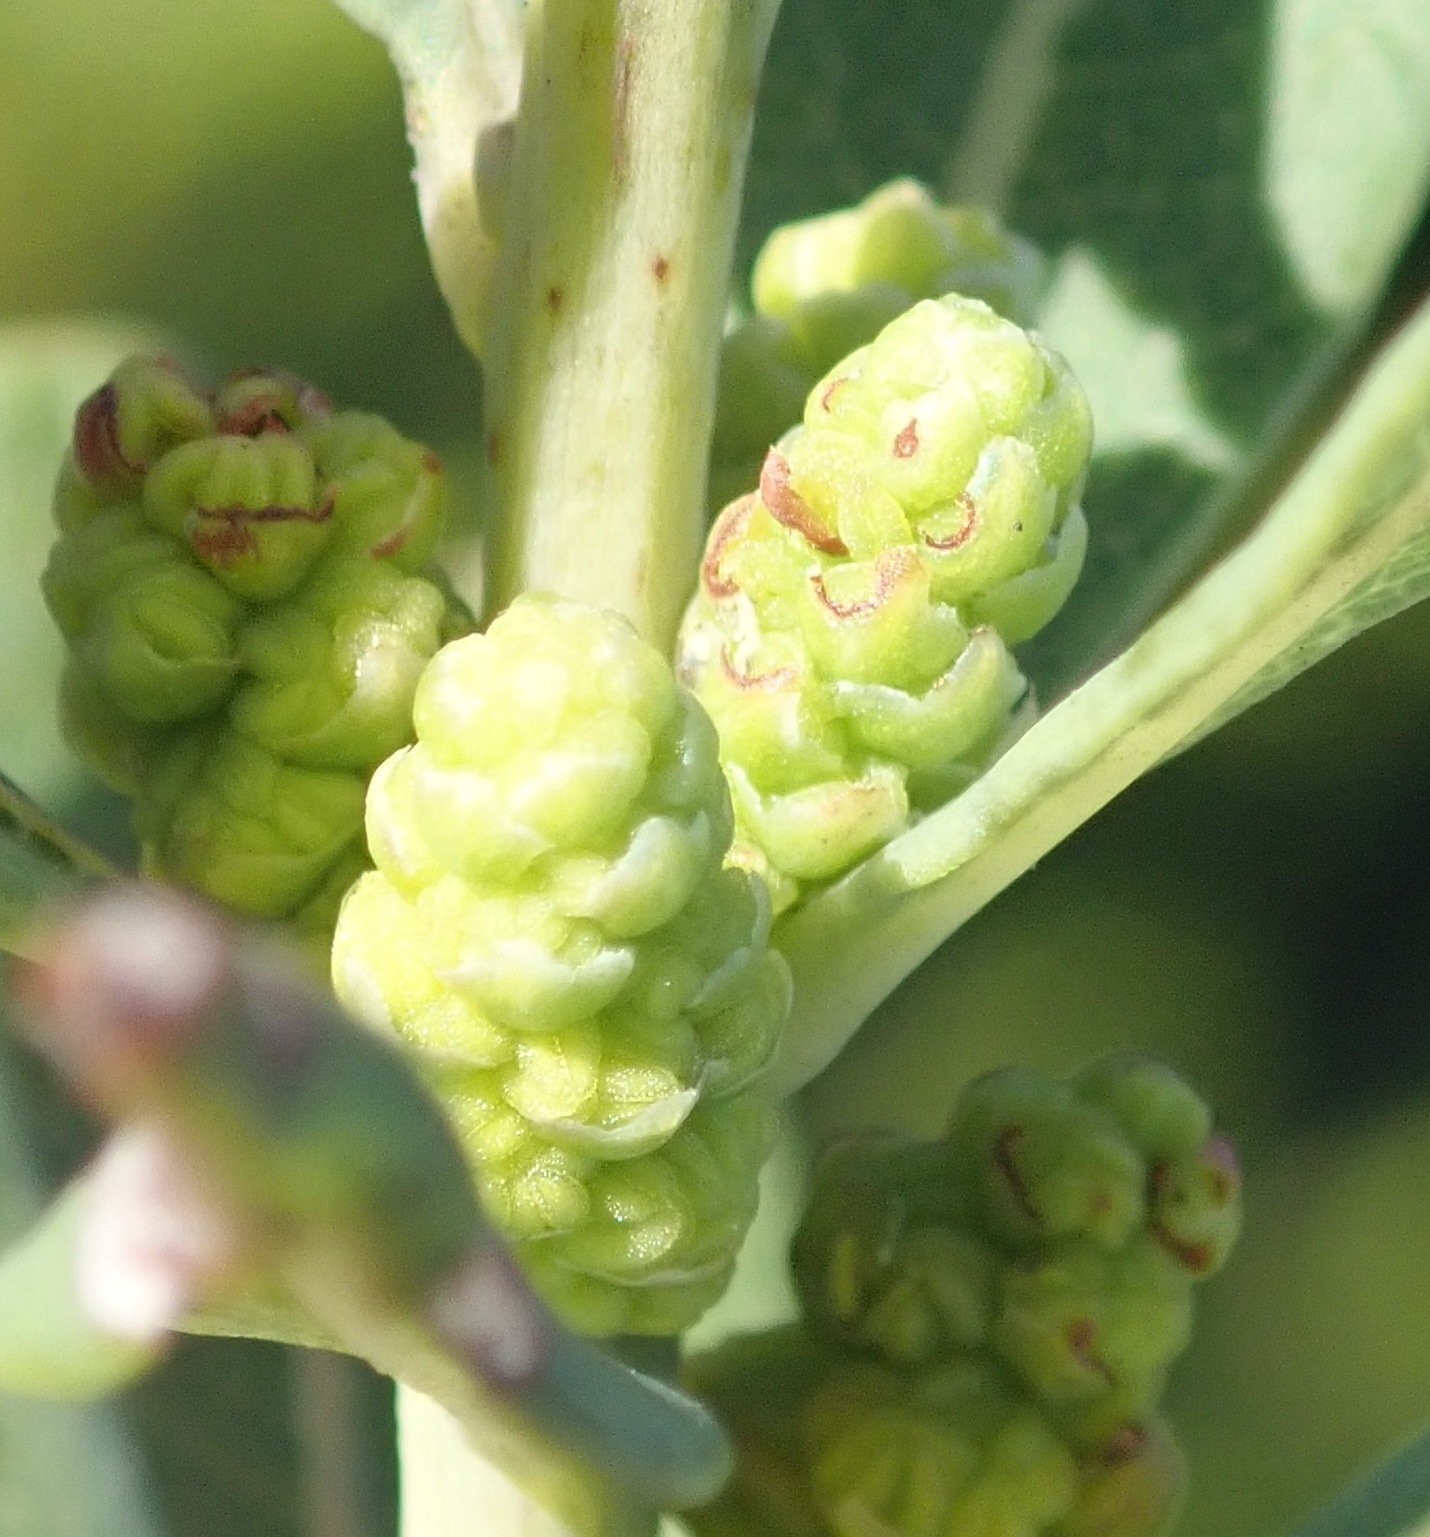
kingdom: Plantae
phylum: Tracheophyta
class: Magnoliopsida
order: Fagales
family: Myricaceae
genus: Morella
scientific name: Morella humilis
